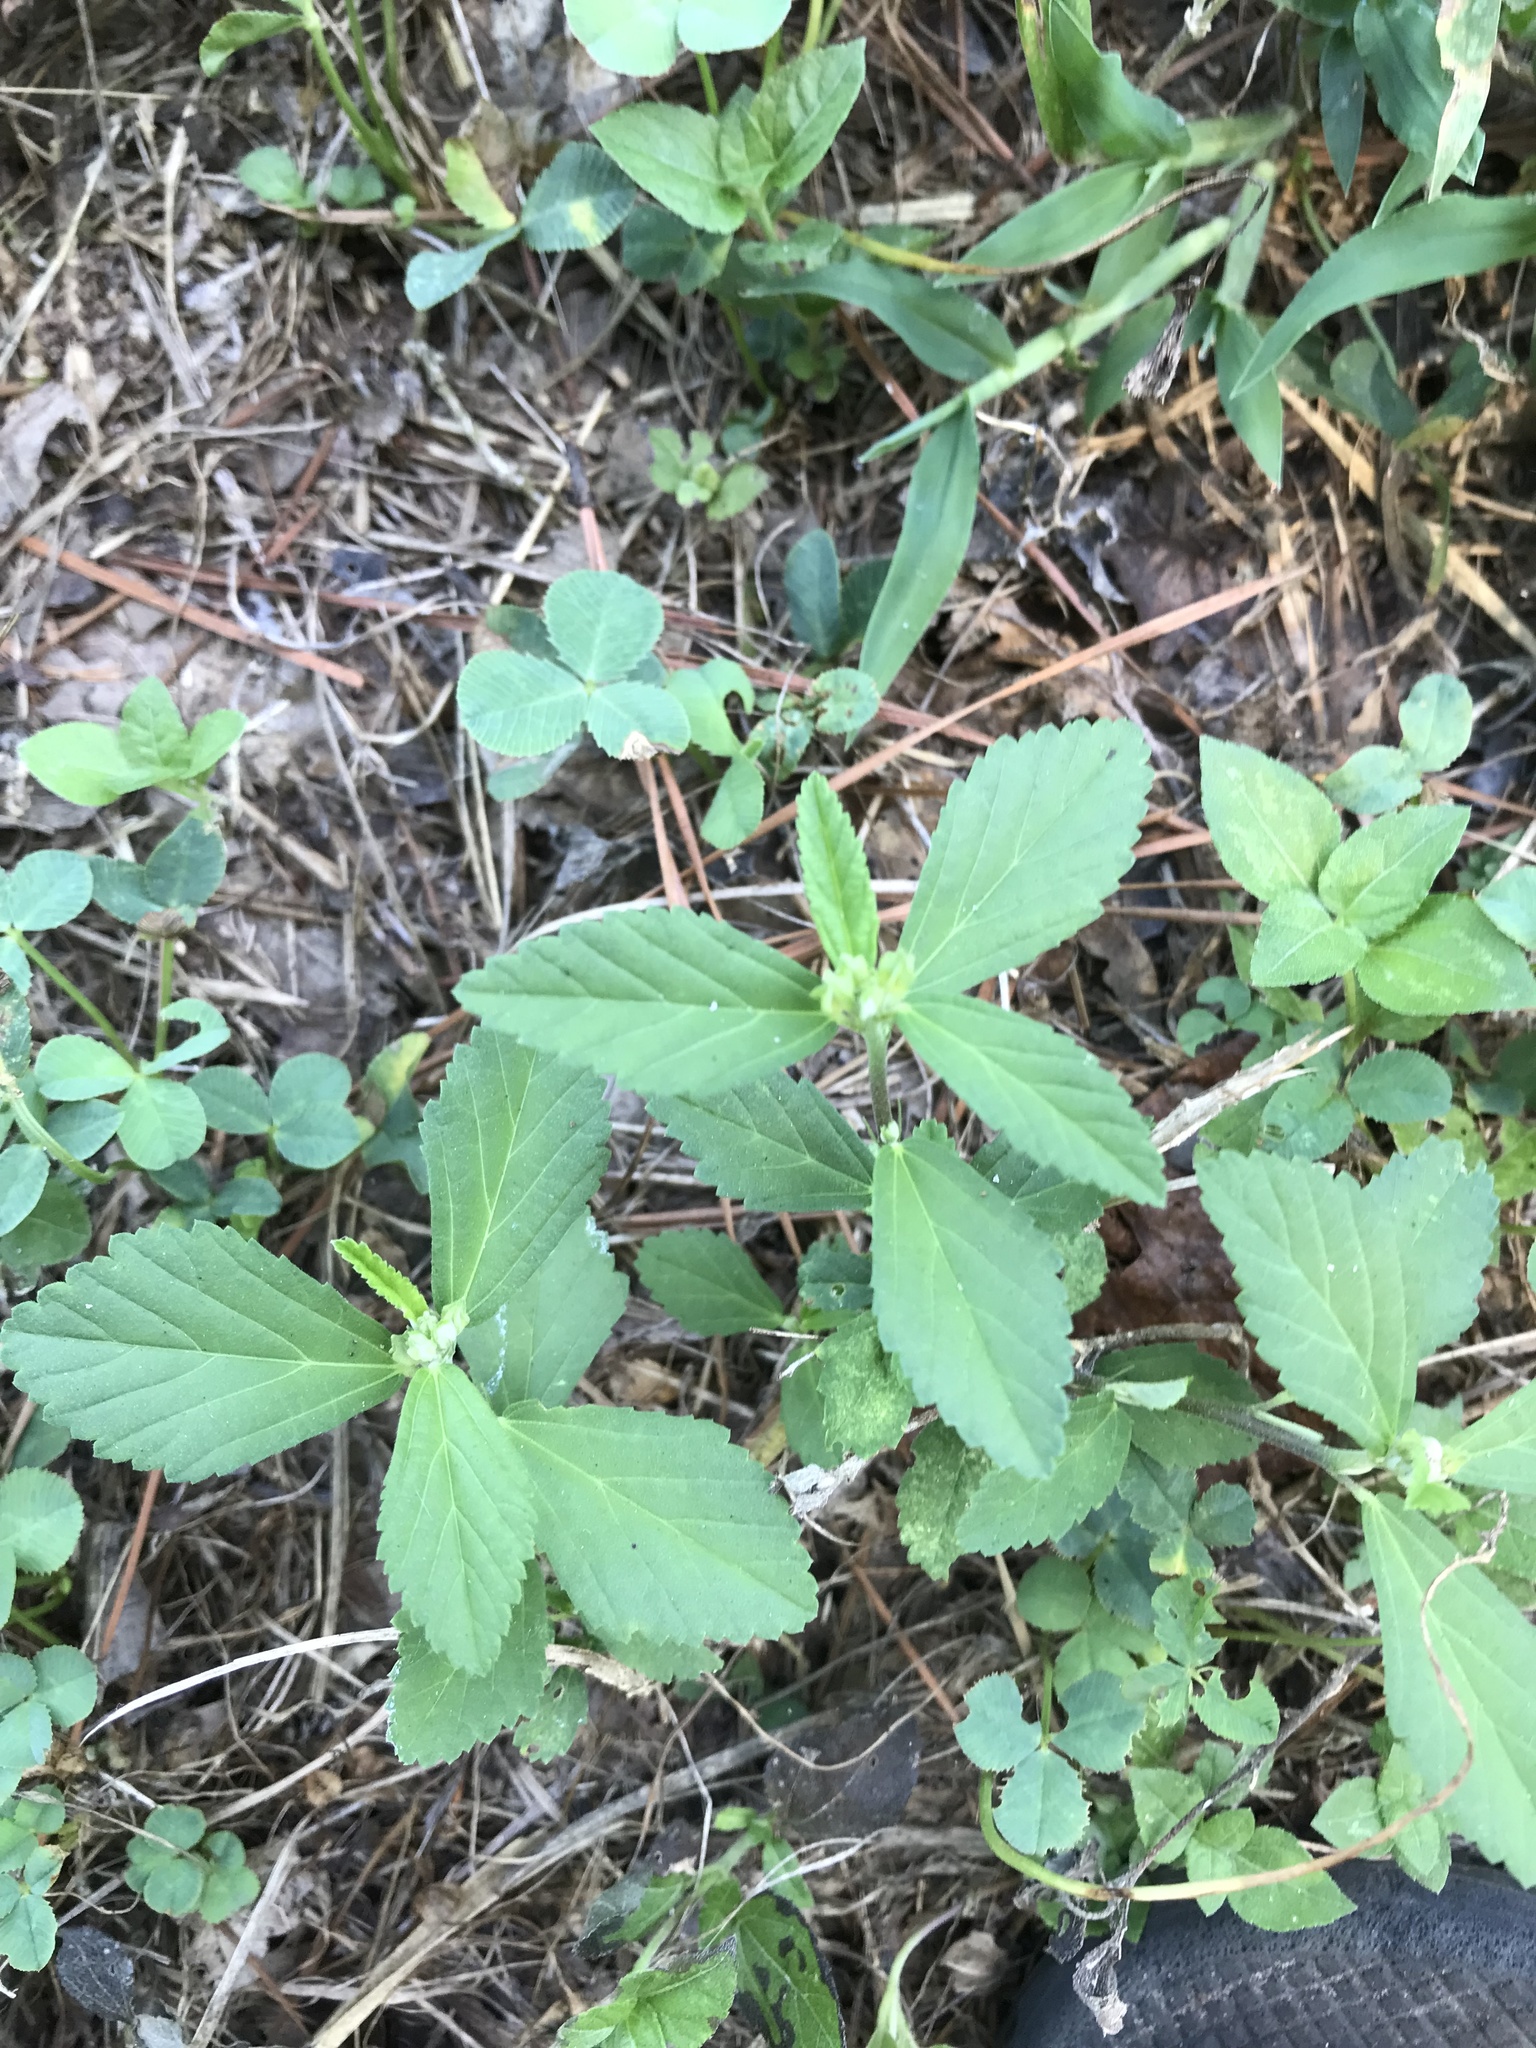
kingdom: Plantae
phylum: Tracheophyta
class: Magnoliopsida
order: Malvales
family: Malvaceae
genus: Sida
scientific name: Sida rhombifolia
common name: Queensland-hemp
